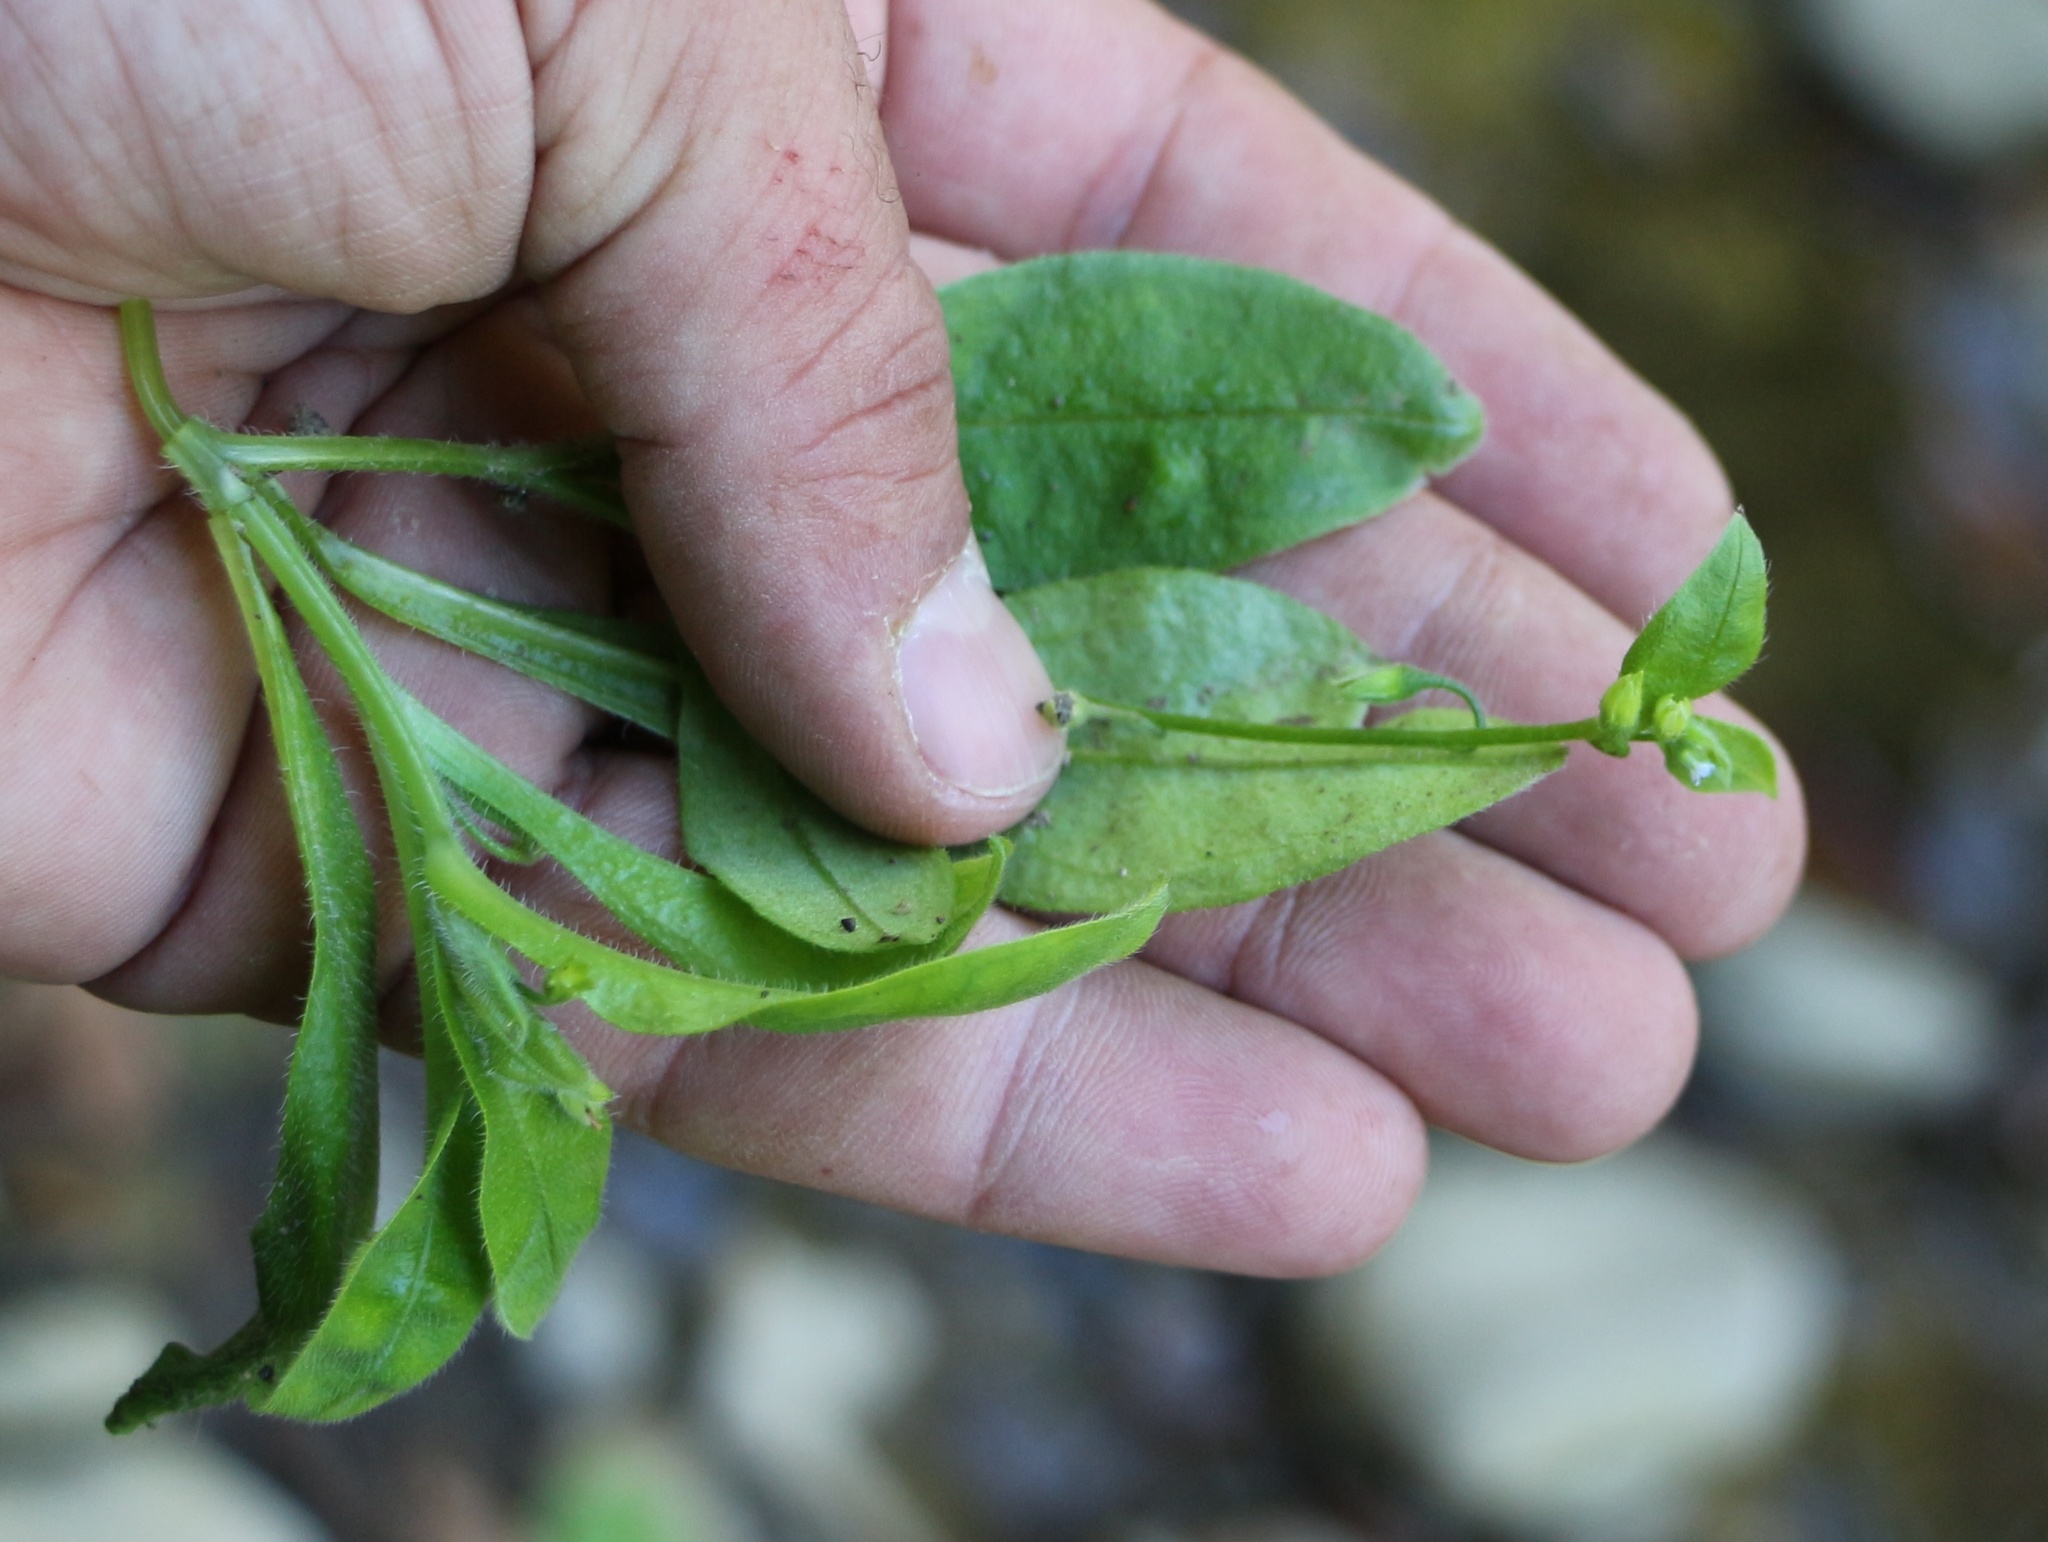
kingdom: Plantae
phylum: Tracheophyta
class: Magnoliopsida
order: Boraginales
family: Boraginaceae
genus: Myosotis
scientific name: Myosotis sparsiflora
